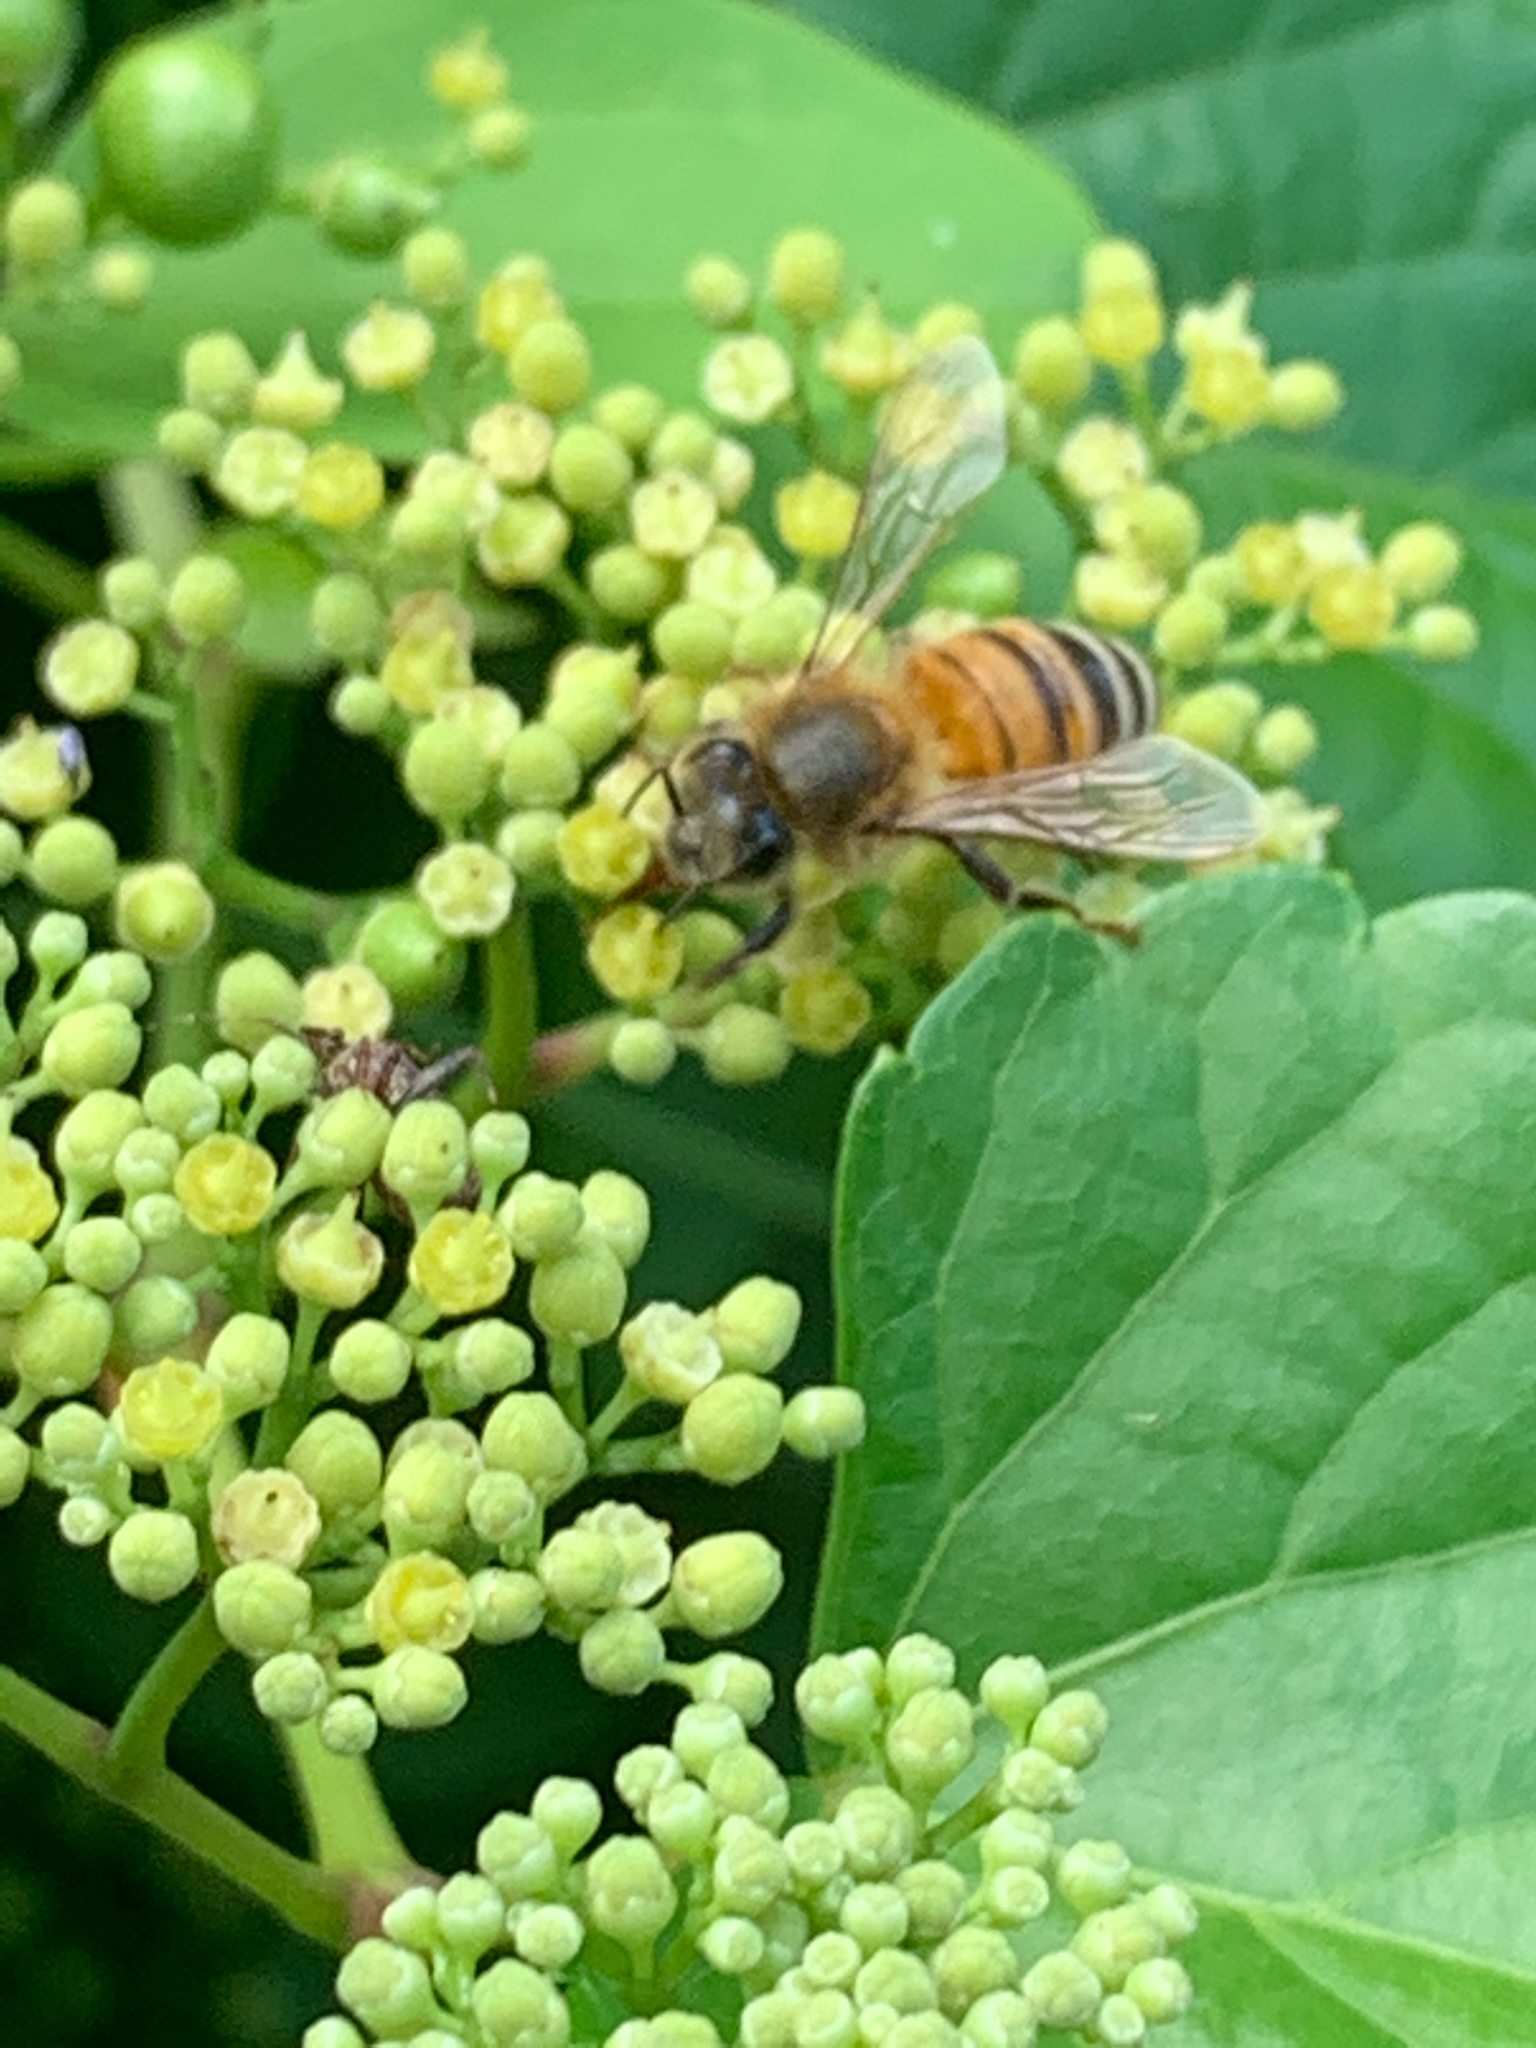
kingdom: Animalia
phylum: Arthropoda
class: Insecta
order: Hymenoptera
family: Apidae
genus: Apis
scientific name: Apis mellifera
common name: Honey bee
